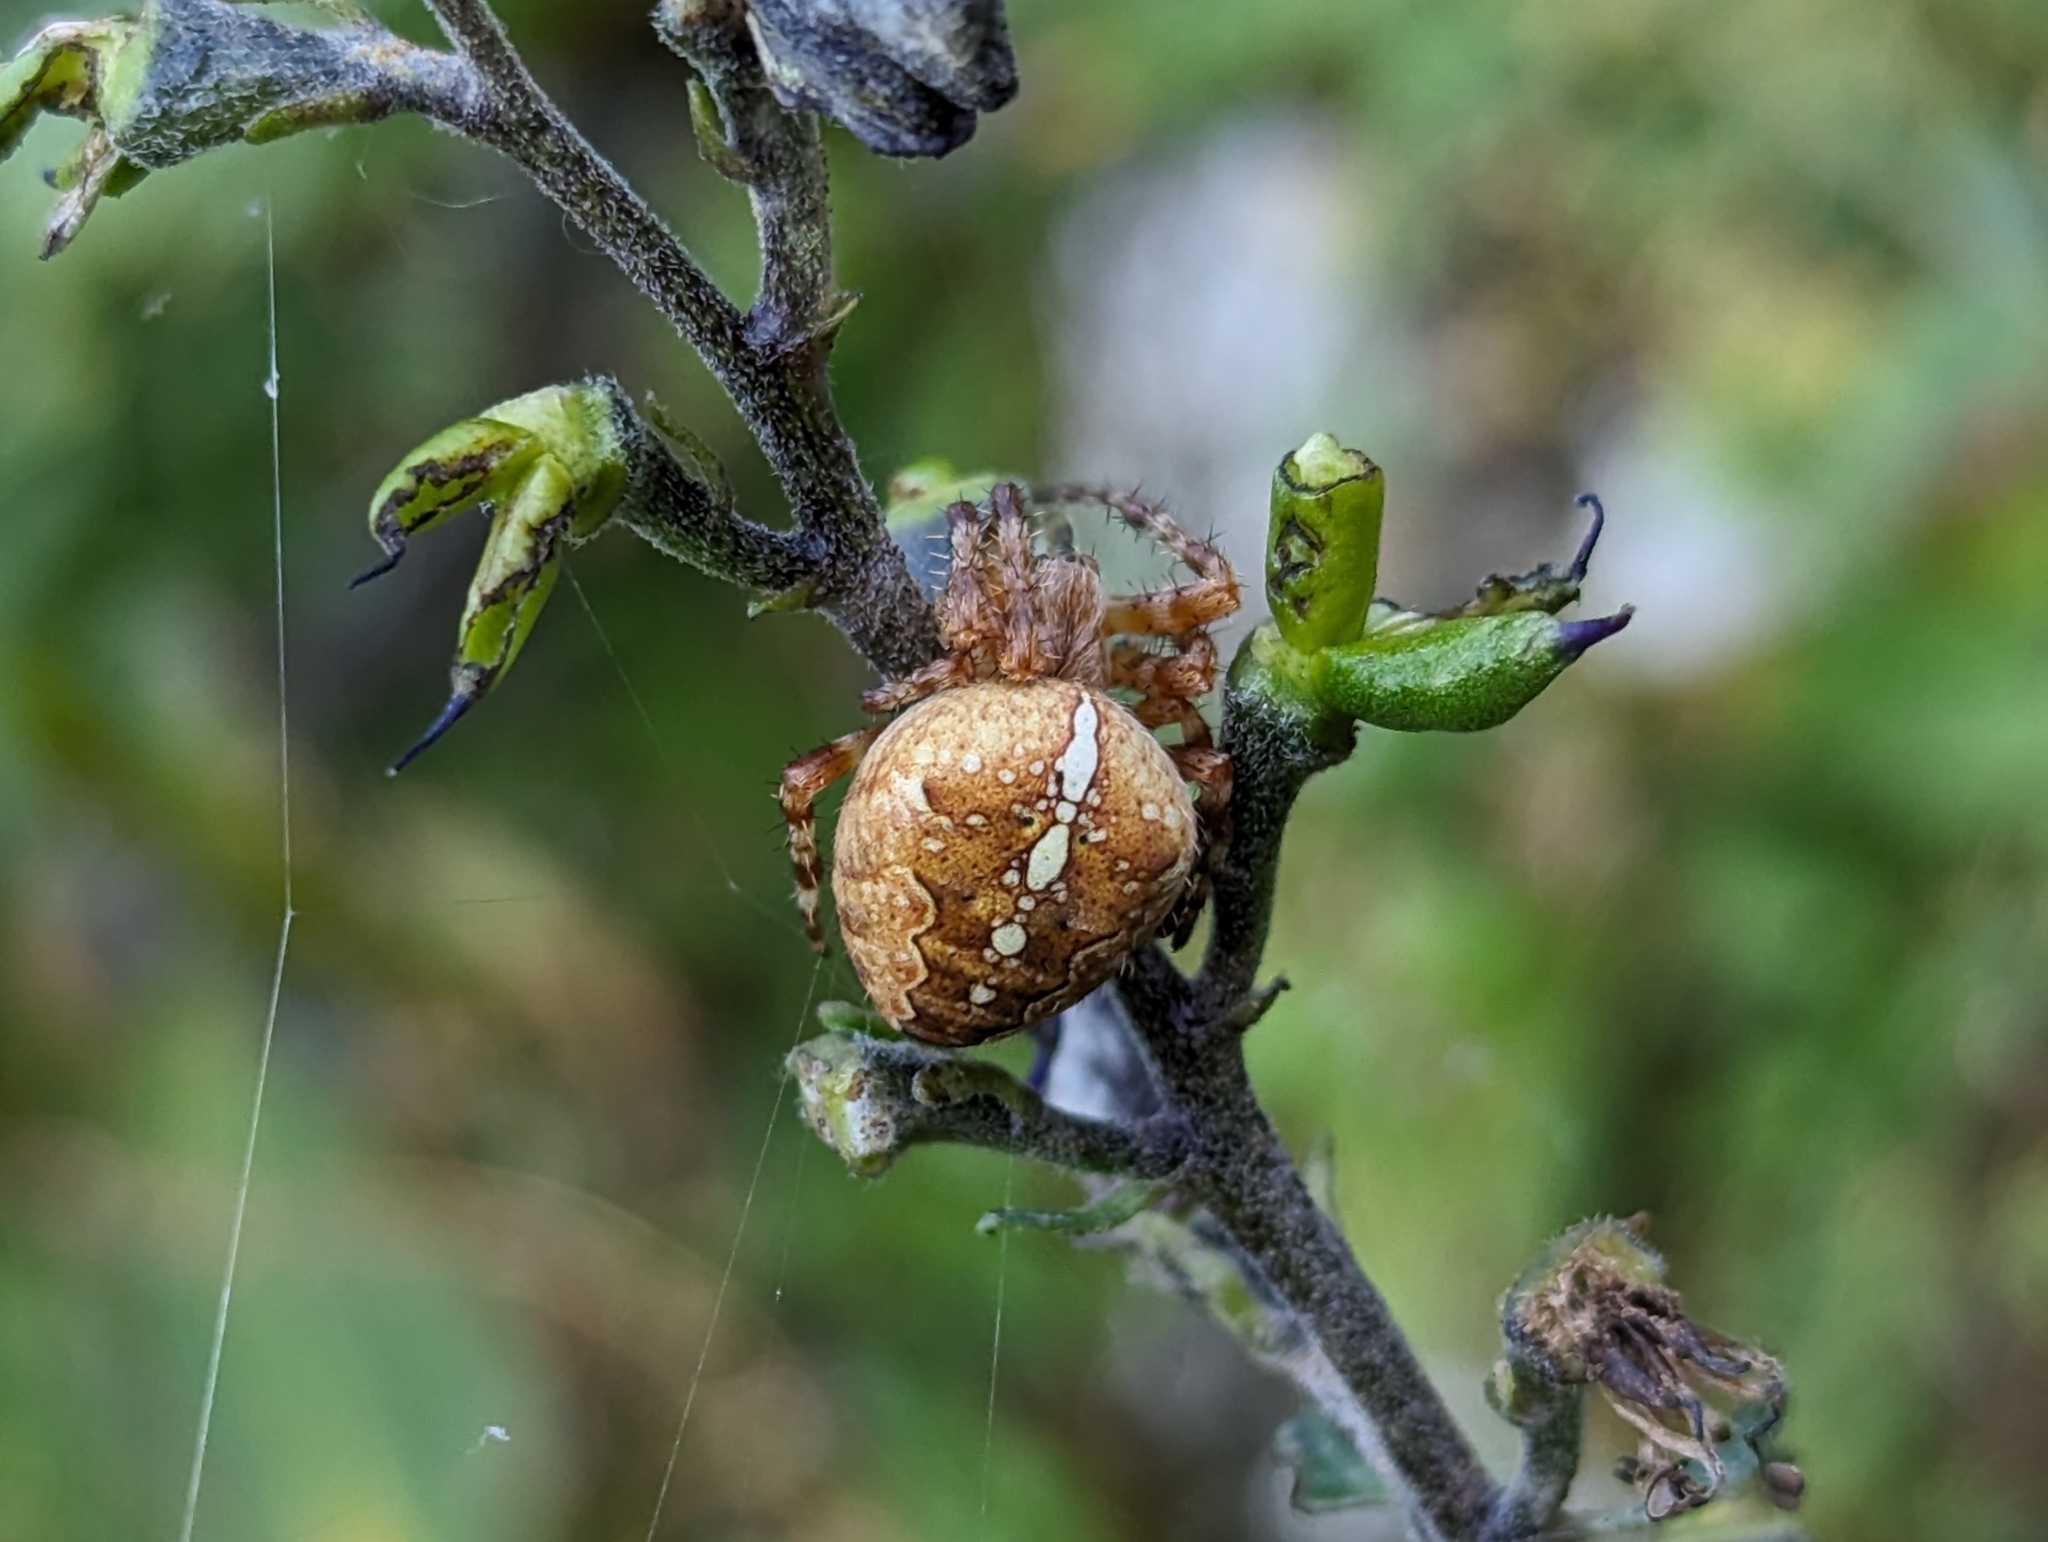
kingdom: Animalia
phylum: Arthropoda
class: Arachnida
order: Araneae
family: Araneidae
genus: Araneus
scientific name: Araneus diadematus
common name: Cross orbweaver
